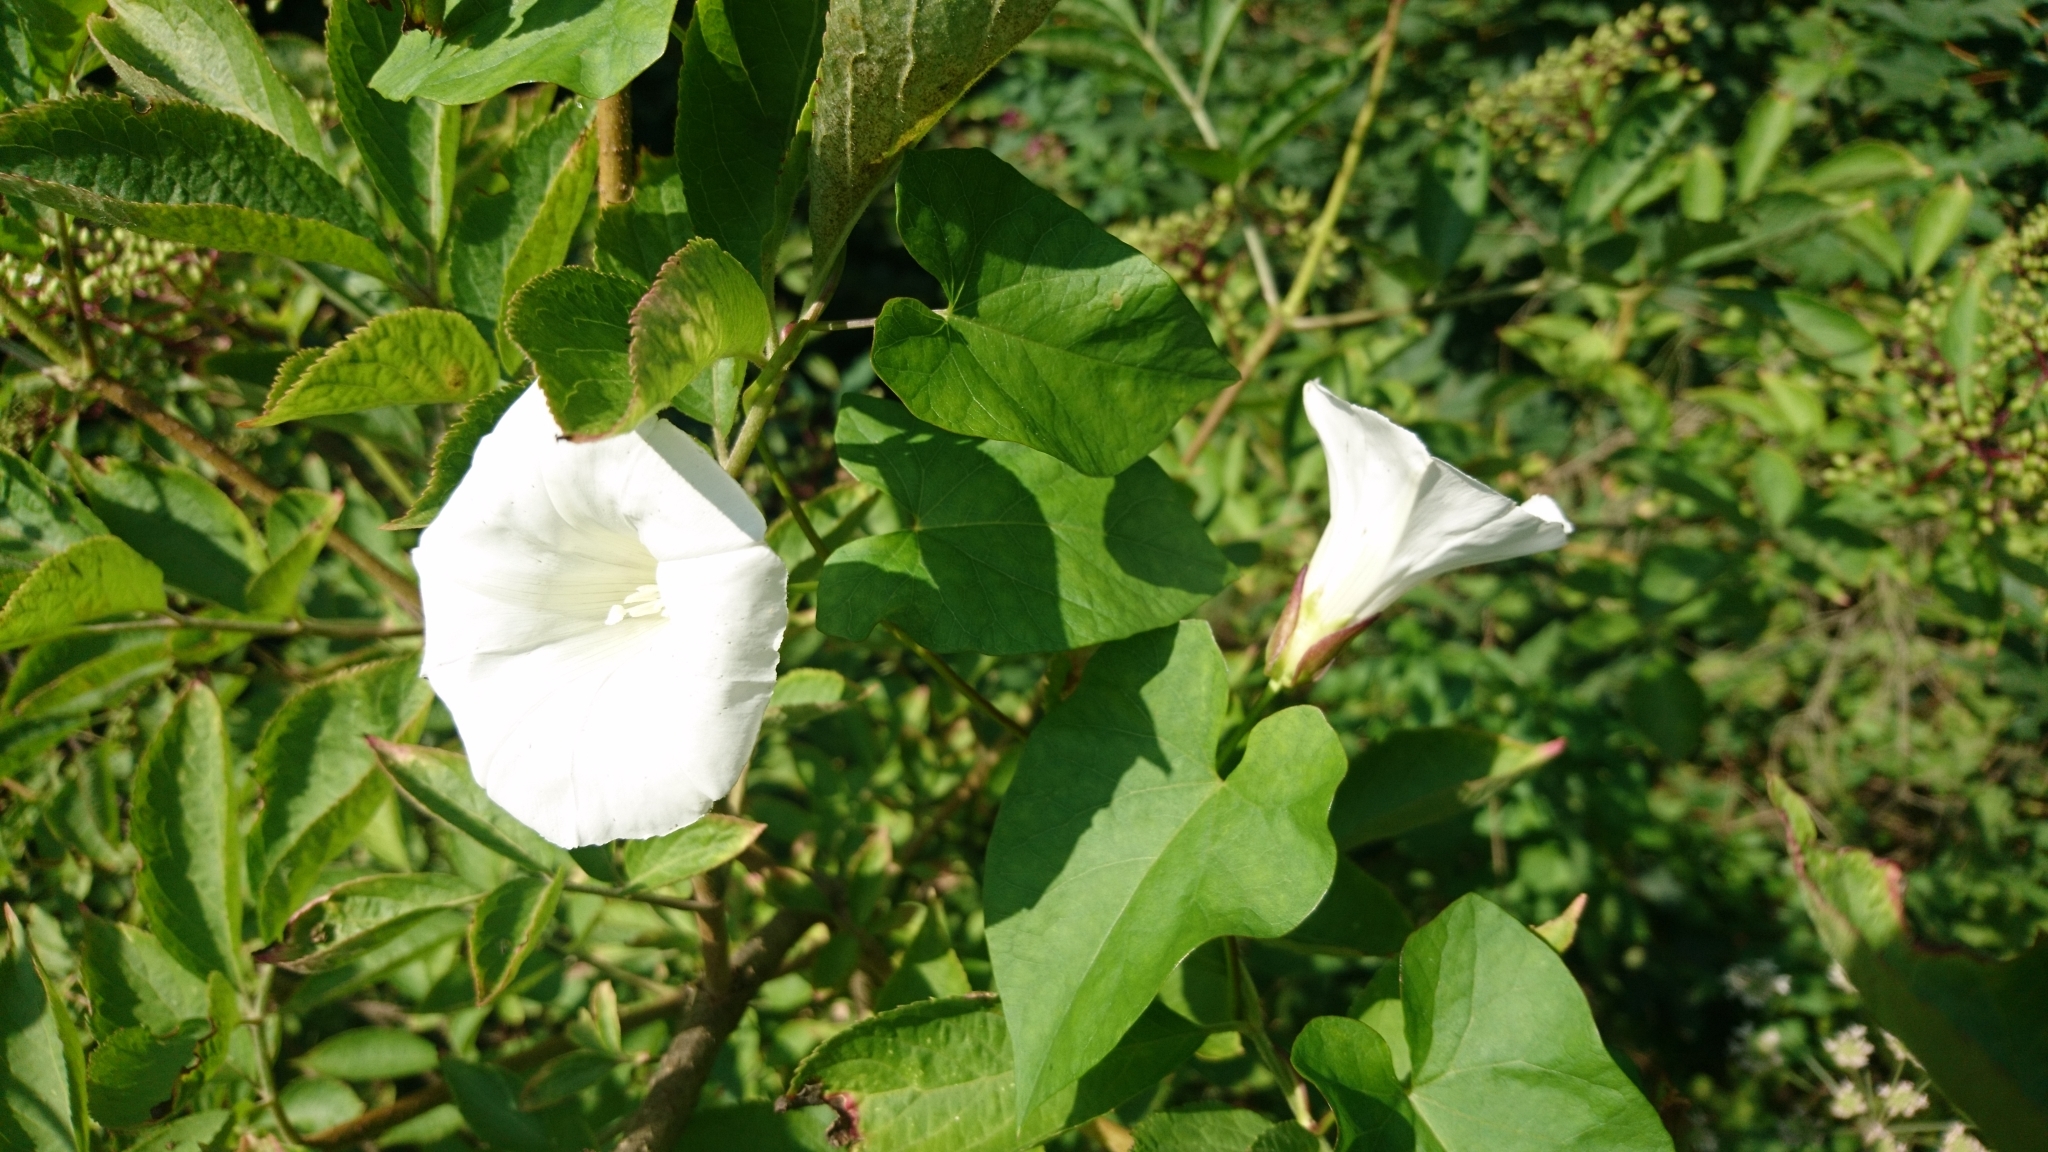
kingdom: Plantae
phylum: Tracheophyta
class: Magnoliopsida
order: Solanales
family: Convolvulaceae
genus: Calystegia
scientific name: Calystegia sepium
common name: Hedge bindweed
